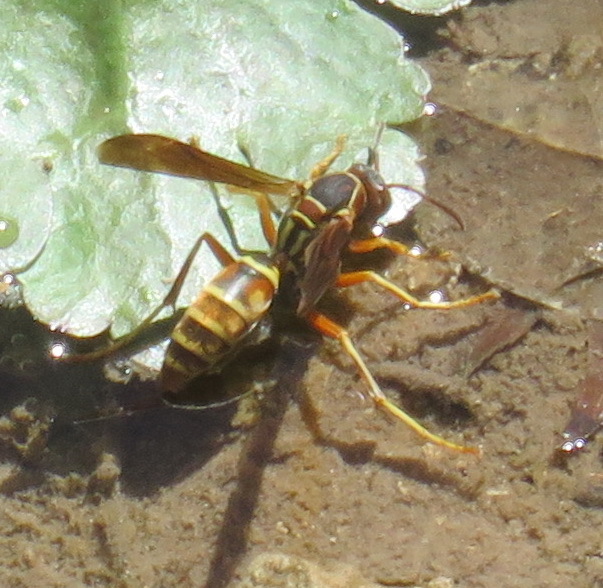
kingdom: Animalia
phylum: Arthropoda
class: Insecta
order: Hymenoptera
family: Eumenidae
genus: Polistes
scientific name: Polistes aurifer
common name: Paper wasp
